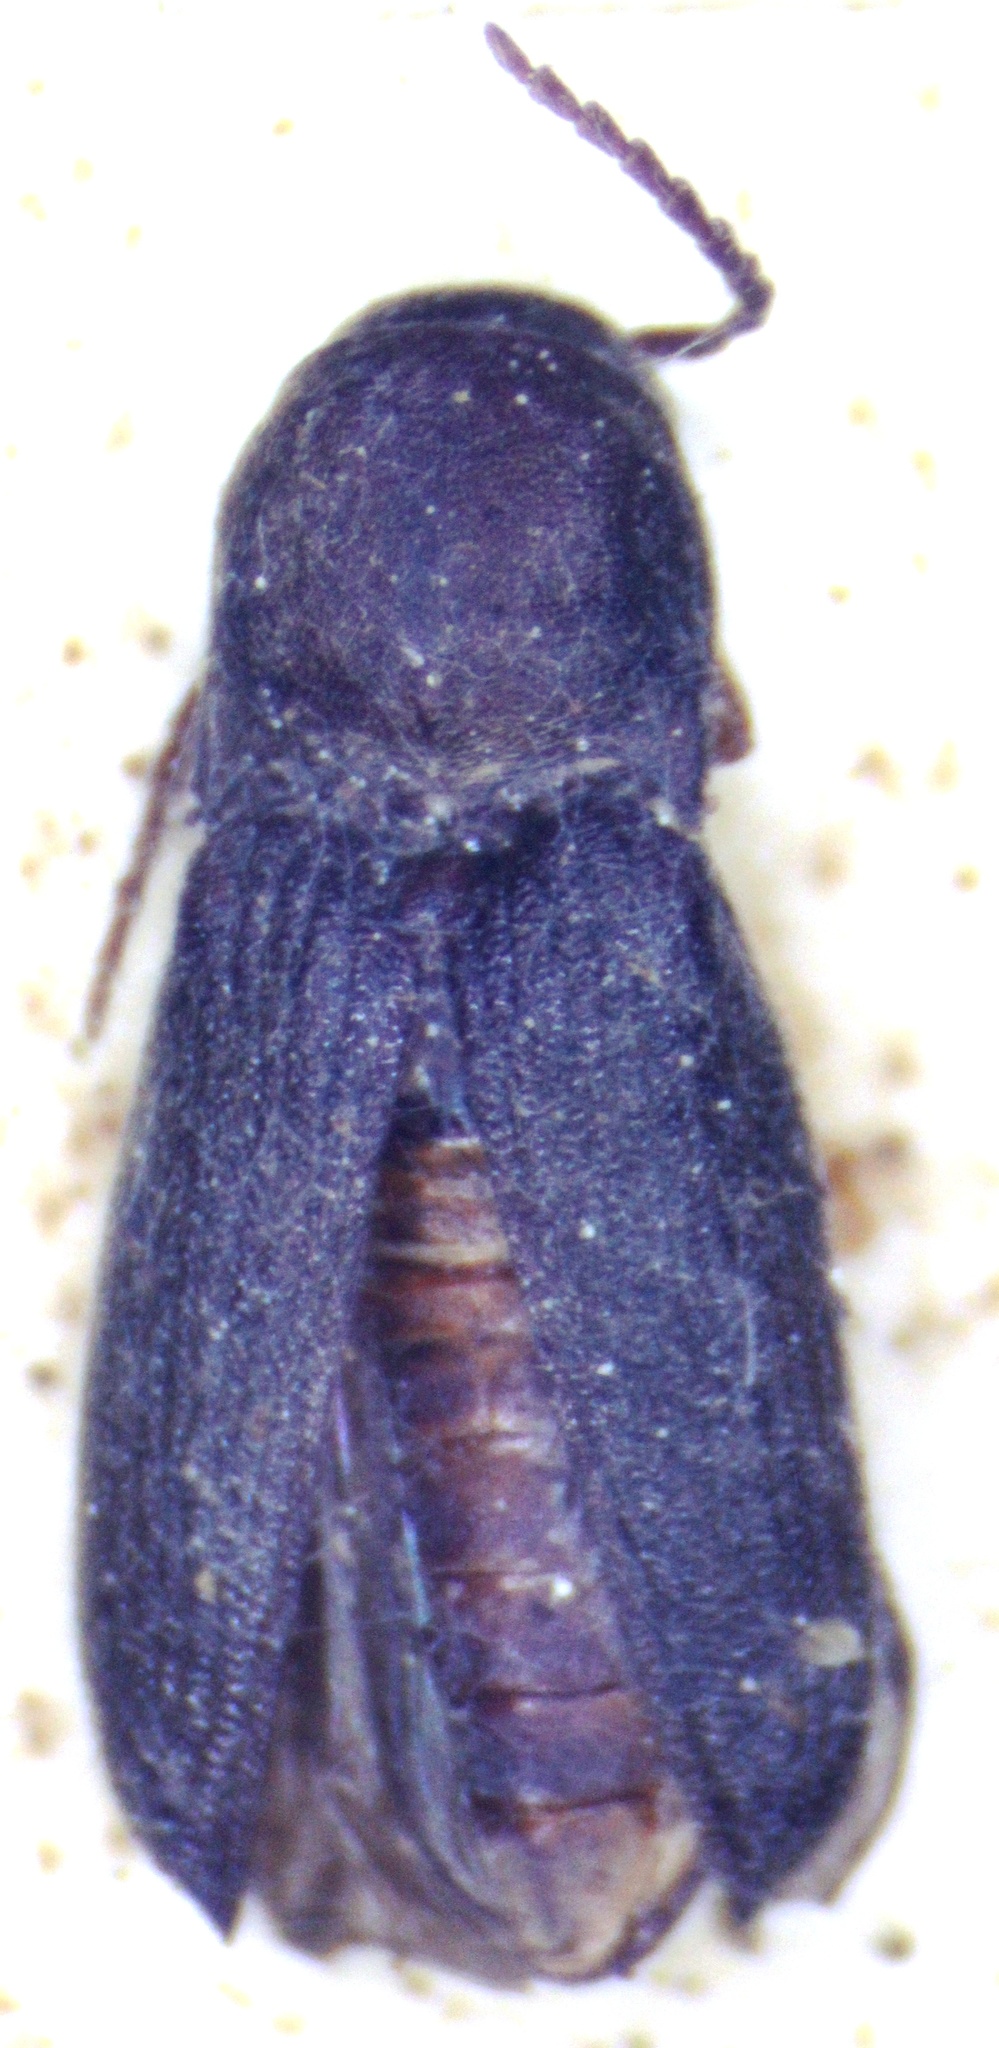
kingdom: Animalia
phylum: Arthropoda
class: Insecta
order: Coleoptera
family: Eucnemidae
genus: Arrhipis
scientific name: Arrhipis
